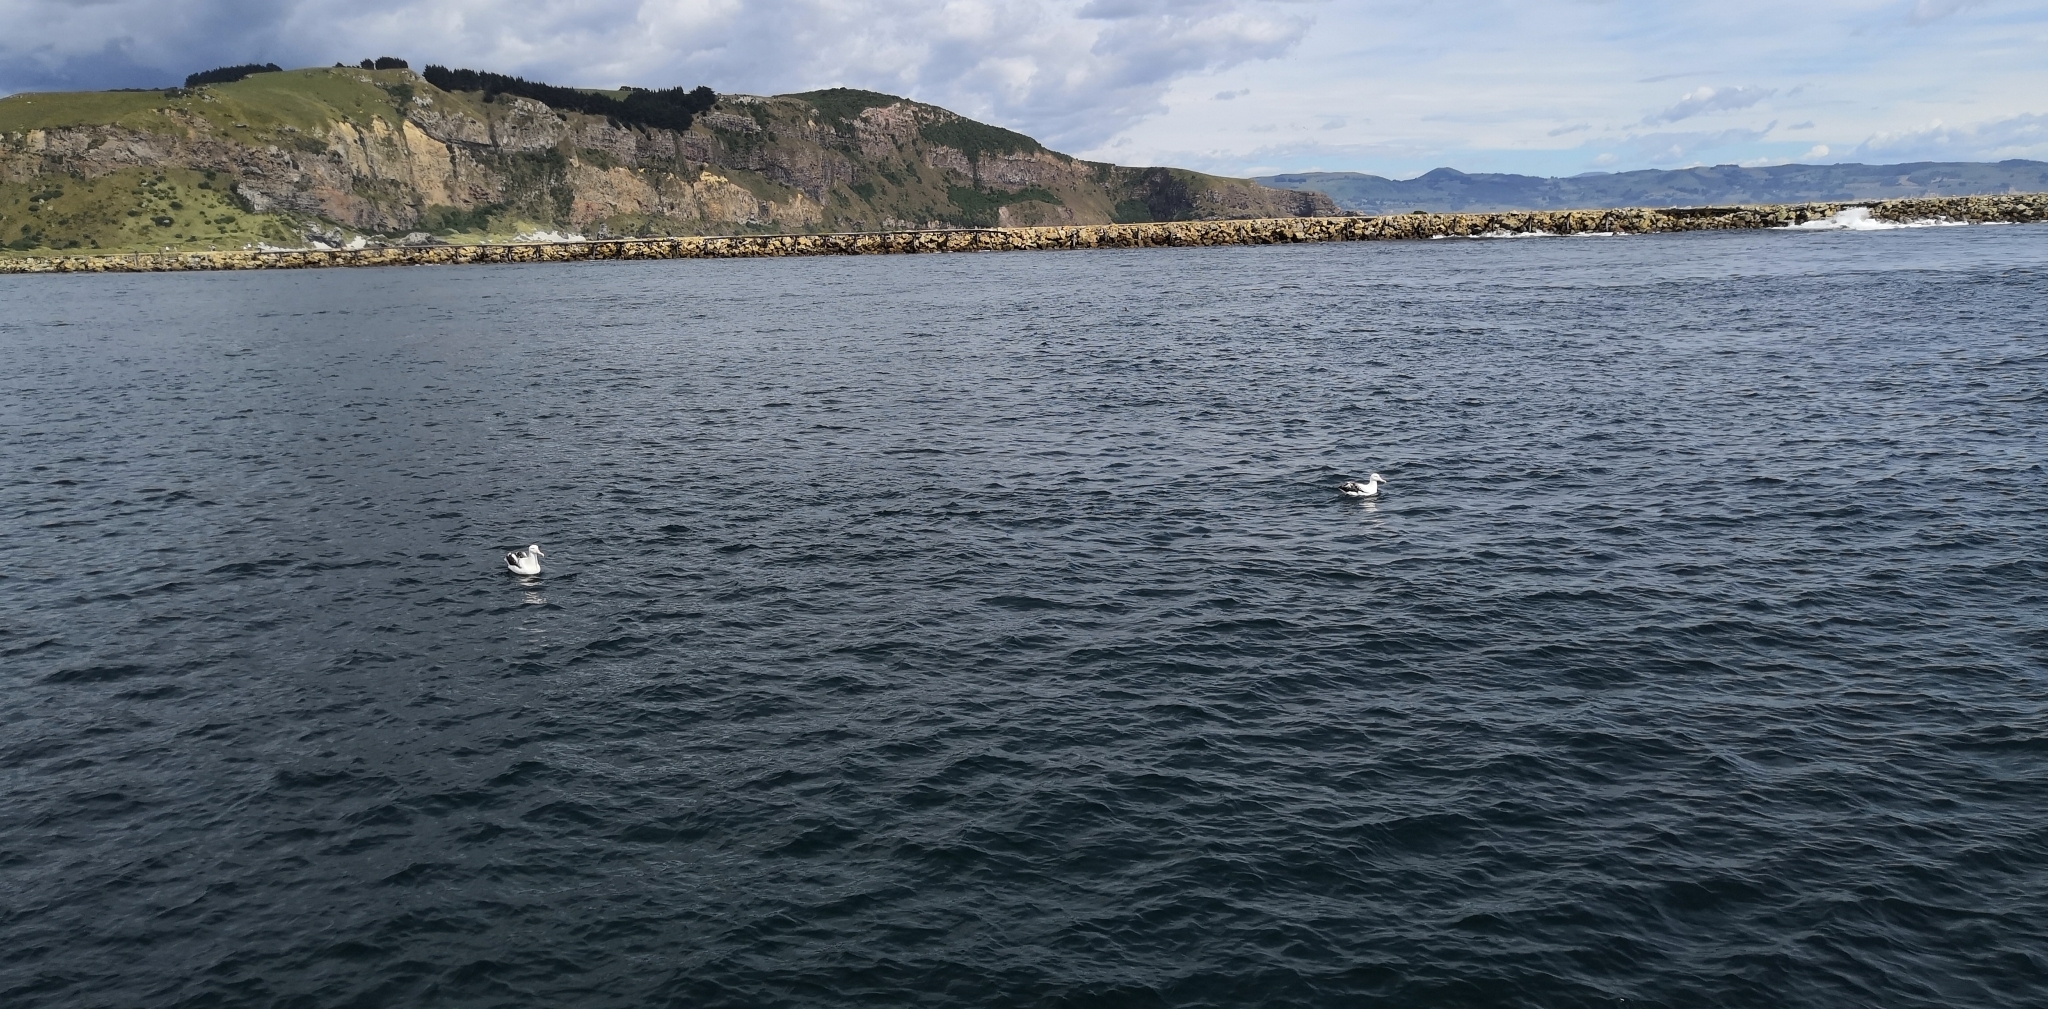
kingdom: Animalia
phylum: Chordata
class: Aves
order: Procellariiformes
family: Diomedeidae
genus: Diomedea
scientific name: Diomedea sanfordi
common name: Northern royal albatross
